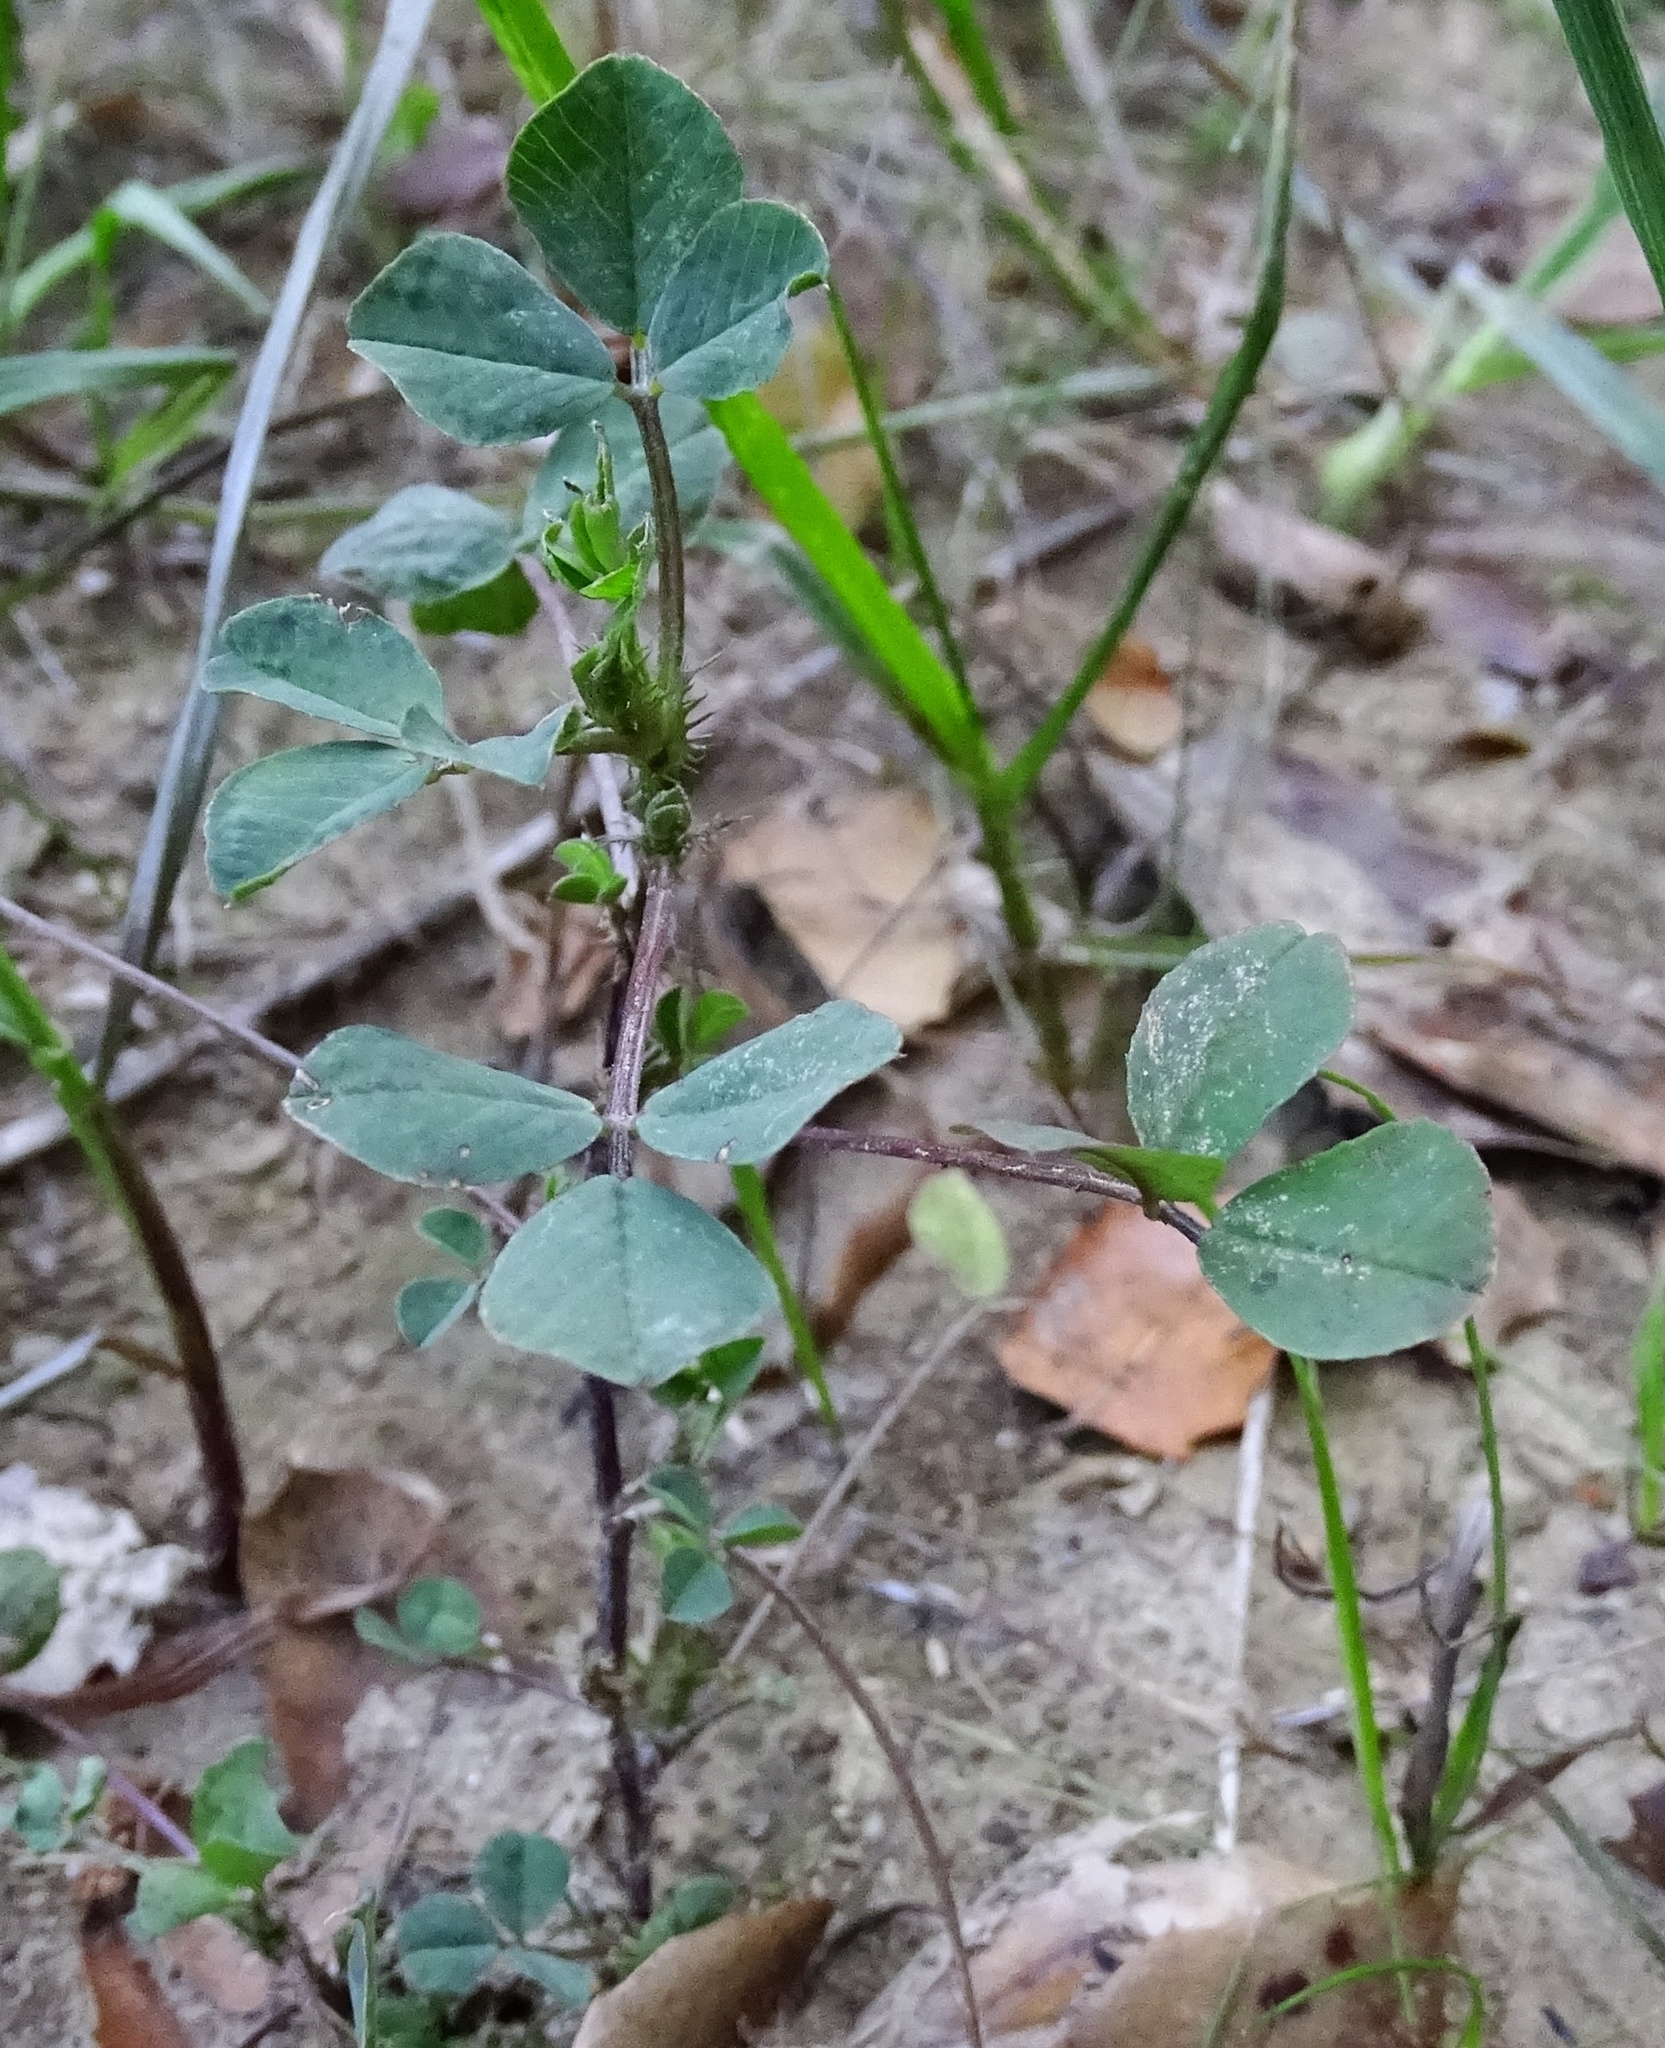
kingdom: Plantae
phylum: Tracheophyta
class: Magnoliopsida
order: Fabales
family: Fabaceae
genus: Medicago
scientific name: Medicago polymorpha
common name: Burclover
